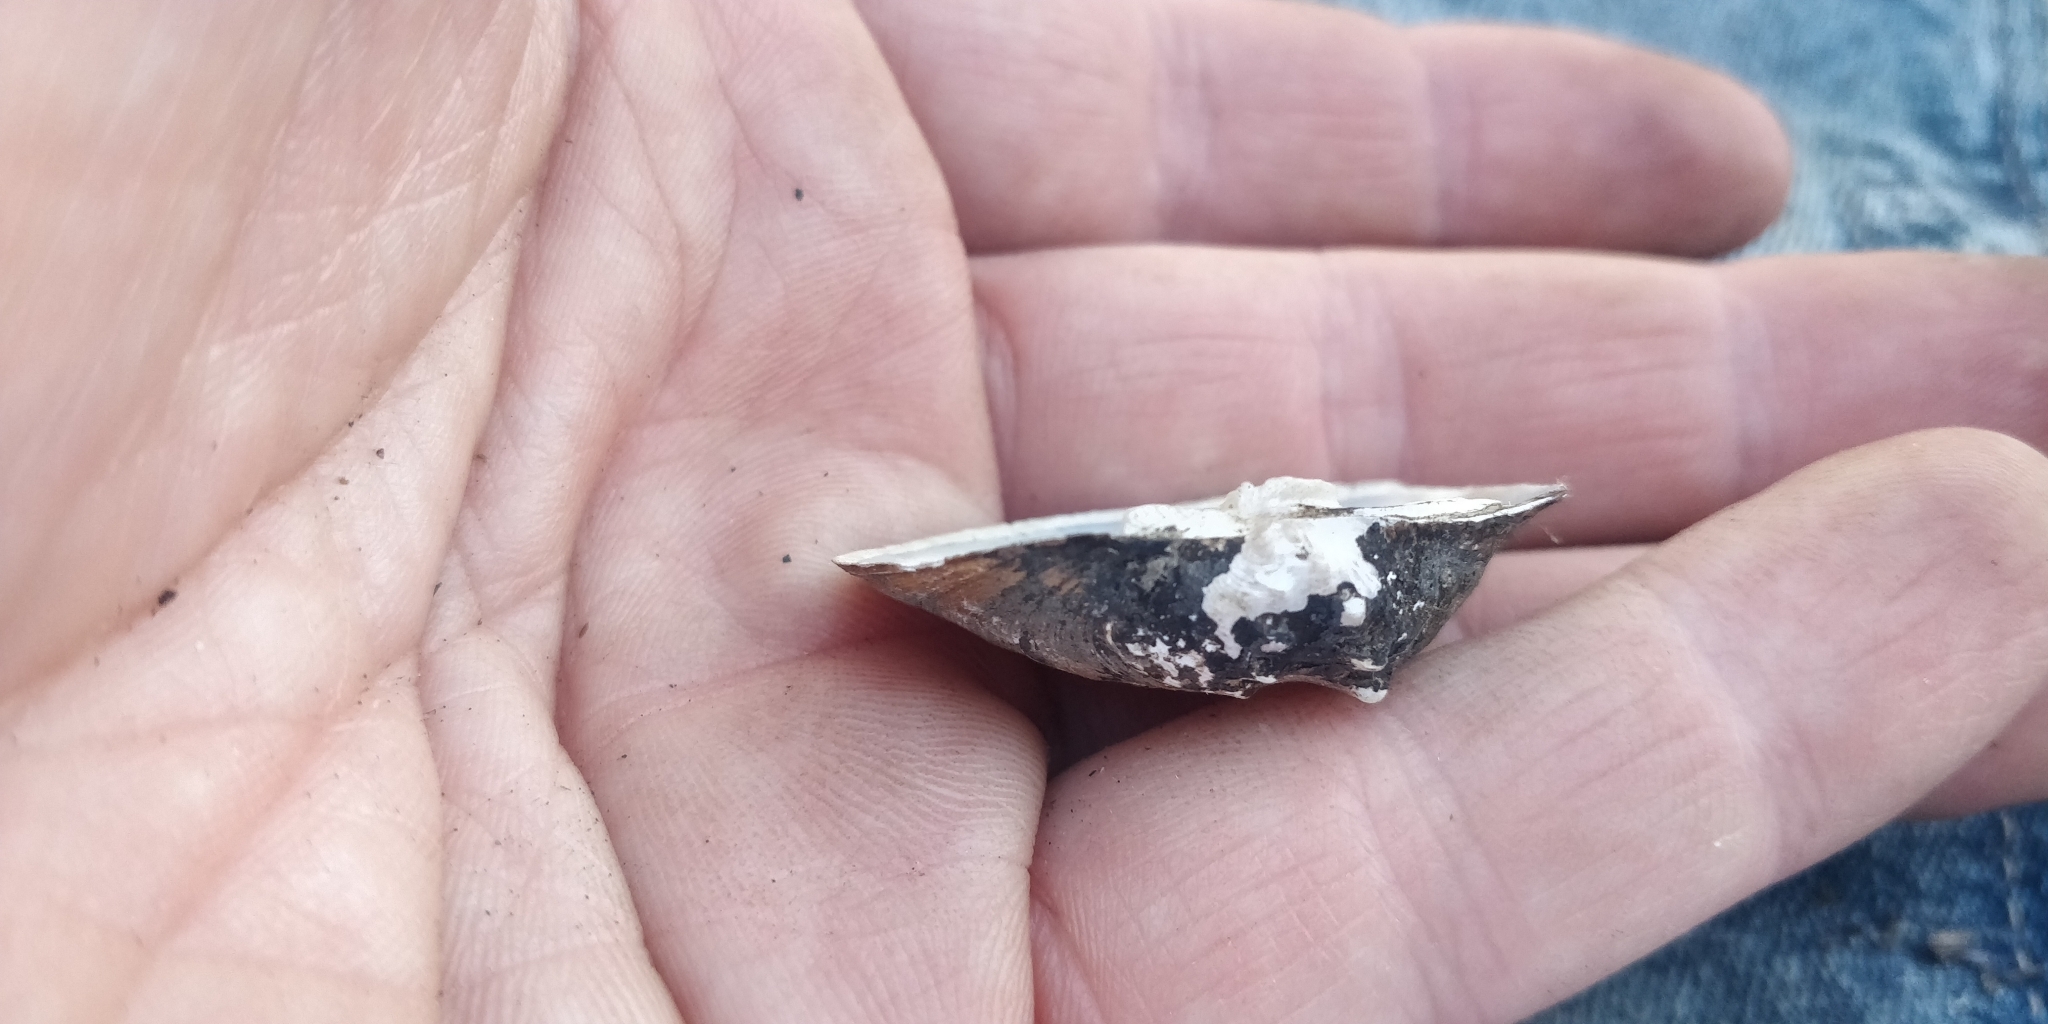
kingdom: Animalia
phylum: Mollusca
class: Bivalvia
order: Unionida
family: Unionidae
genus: Arcidens
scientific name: Arcidens confragosus
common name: Rock pocketbook
